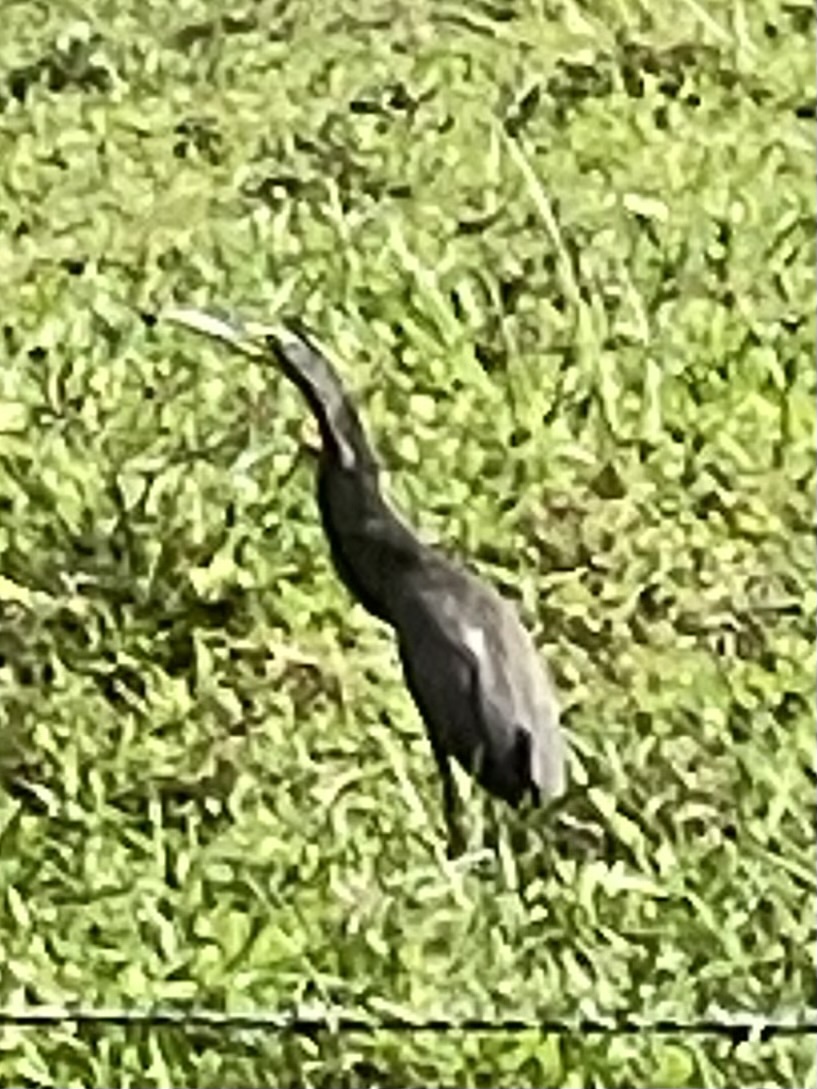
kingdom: Animalia
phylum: Chordata
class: Aves
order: Pelecaniformes
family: Ardeidae
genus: Tigrisoma
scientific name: Tigrisoma mexicanum
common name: Bare-throated tiger-heron
